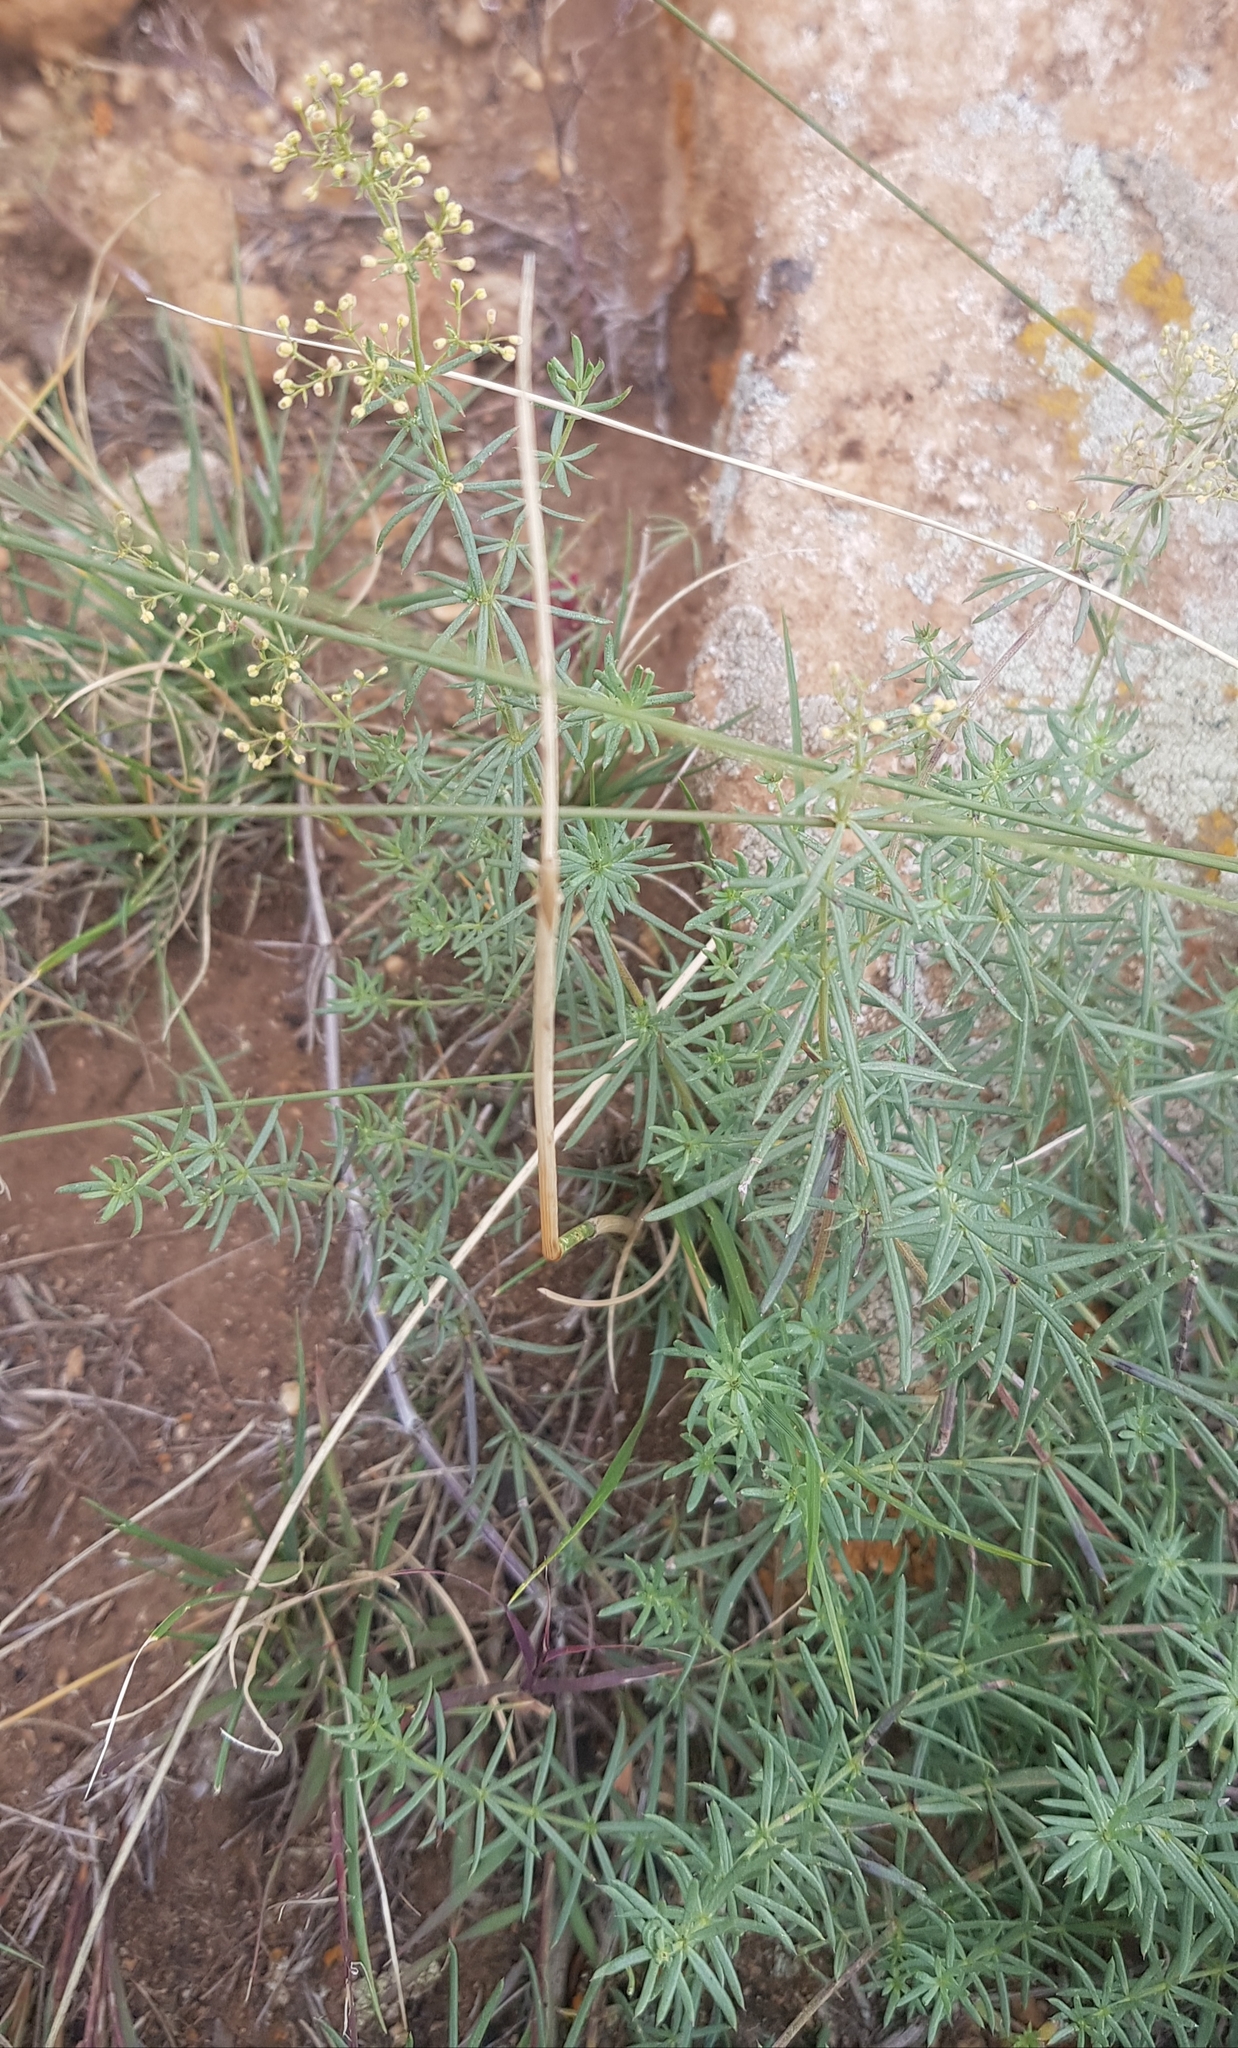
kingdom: Plantae
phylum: Tracheophyta
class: Magnoliopsida
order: Gentianales
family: Rubiaceae
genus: Galium
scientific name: Galium verum
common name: Lady's bedstraw
